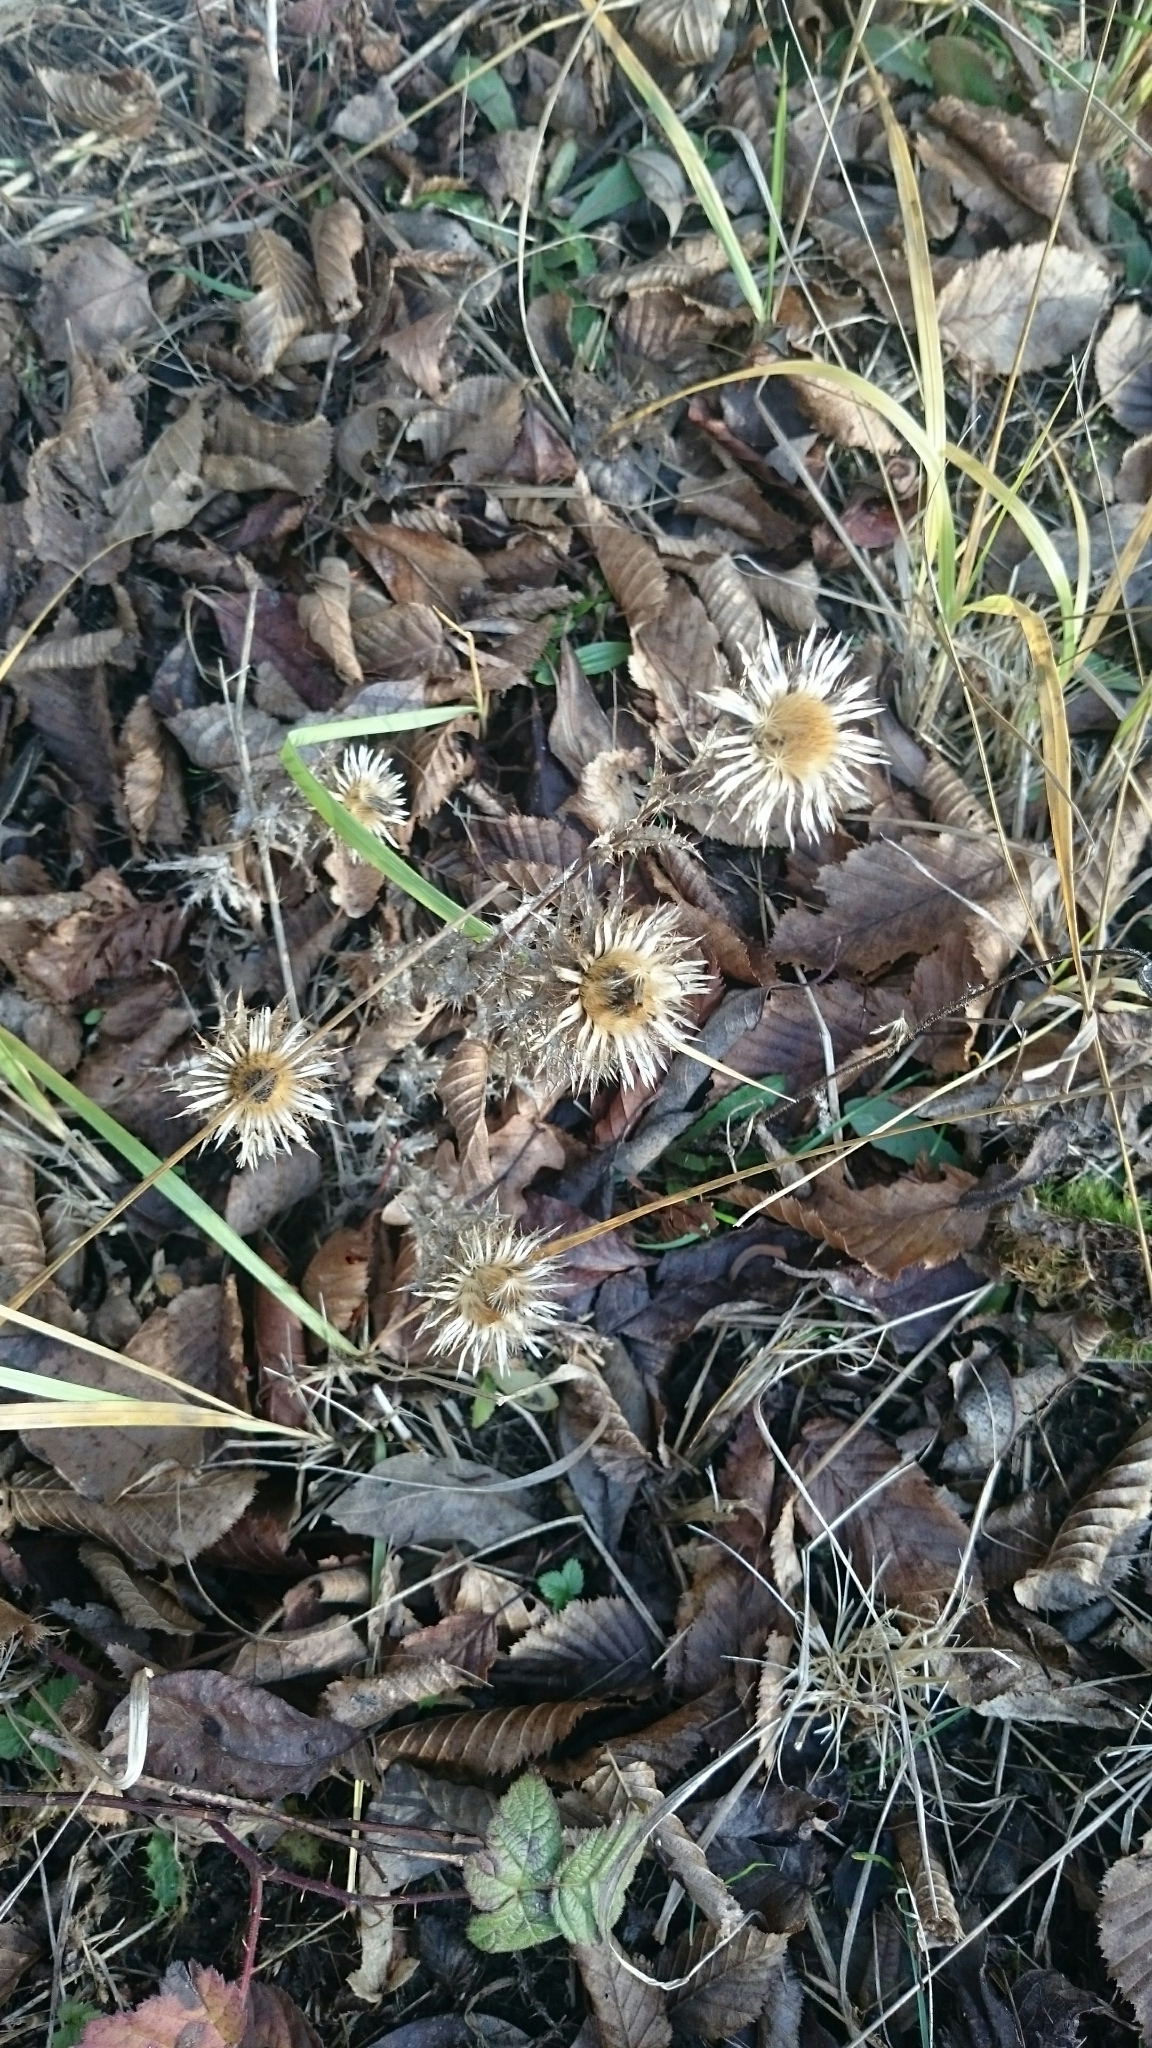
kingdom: Plantae
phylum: Tracheophyta
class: Magnoliopsida
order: Asterales
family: Asteraceae
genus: Carlina
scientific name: Carlina vulgaris
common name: Carline thistle
